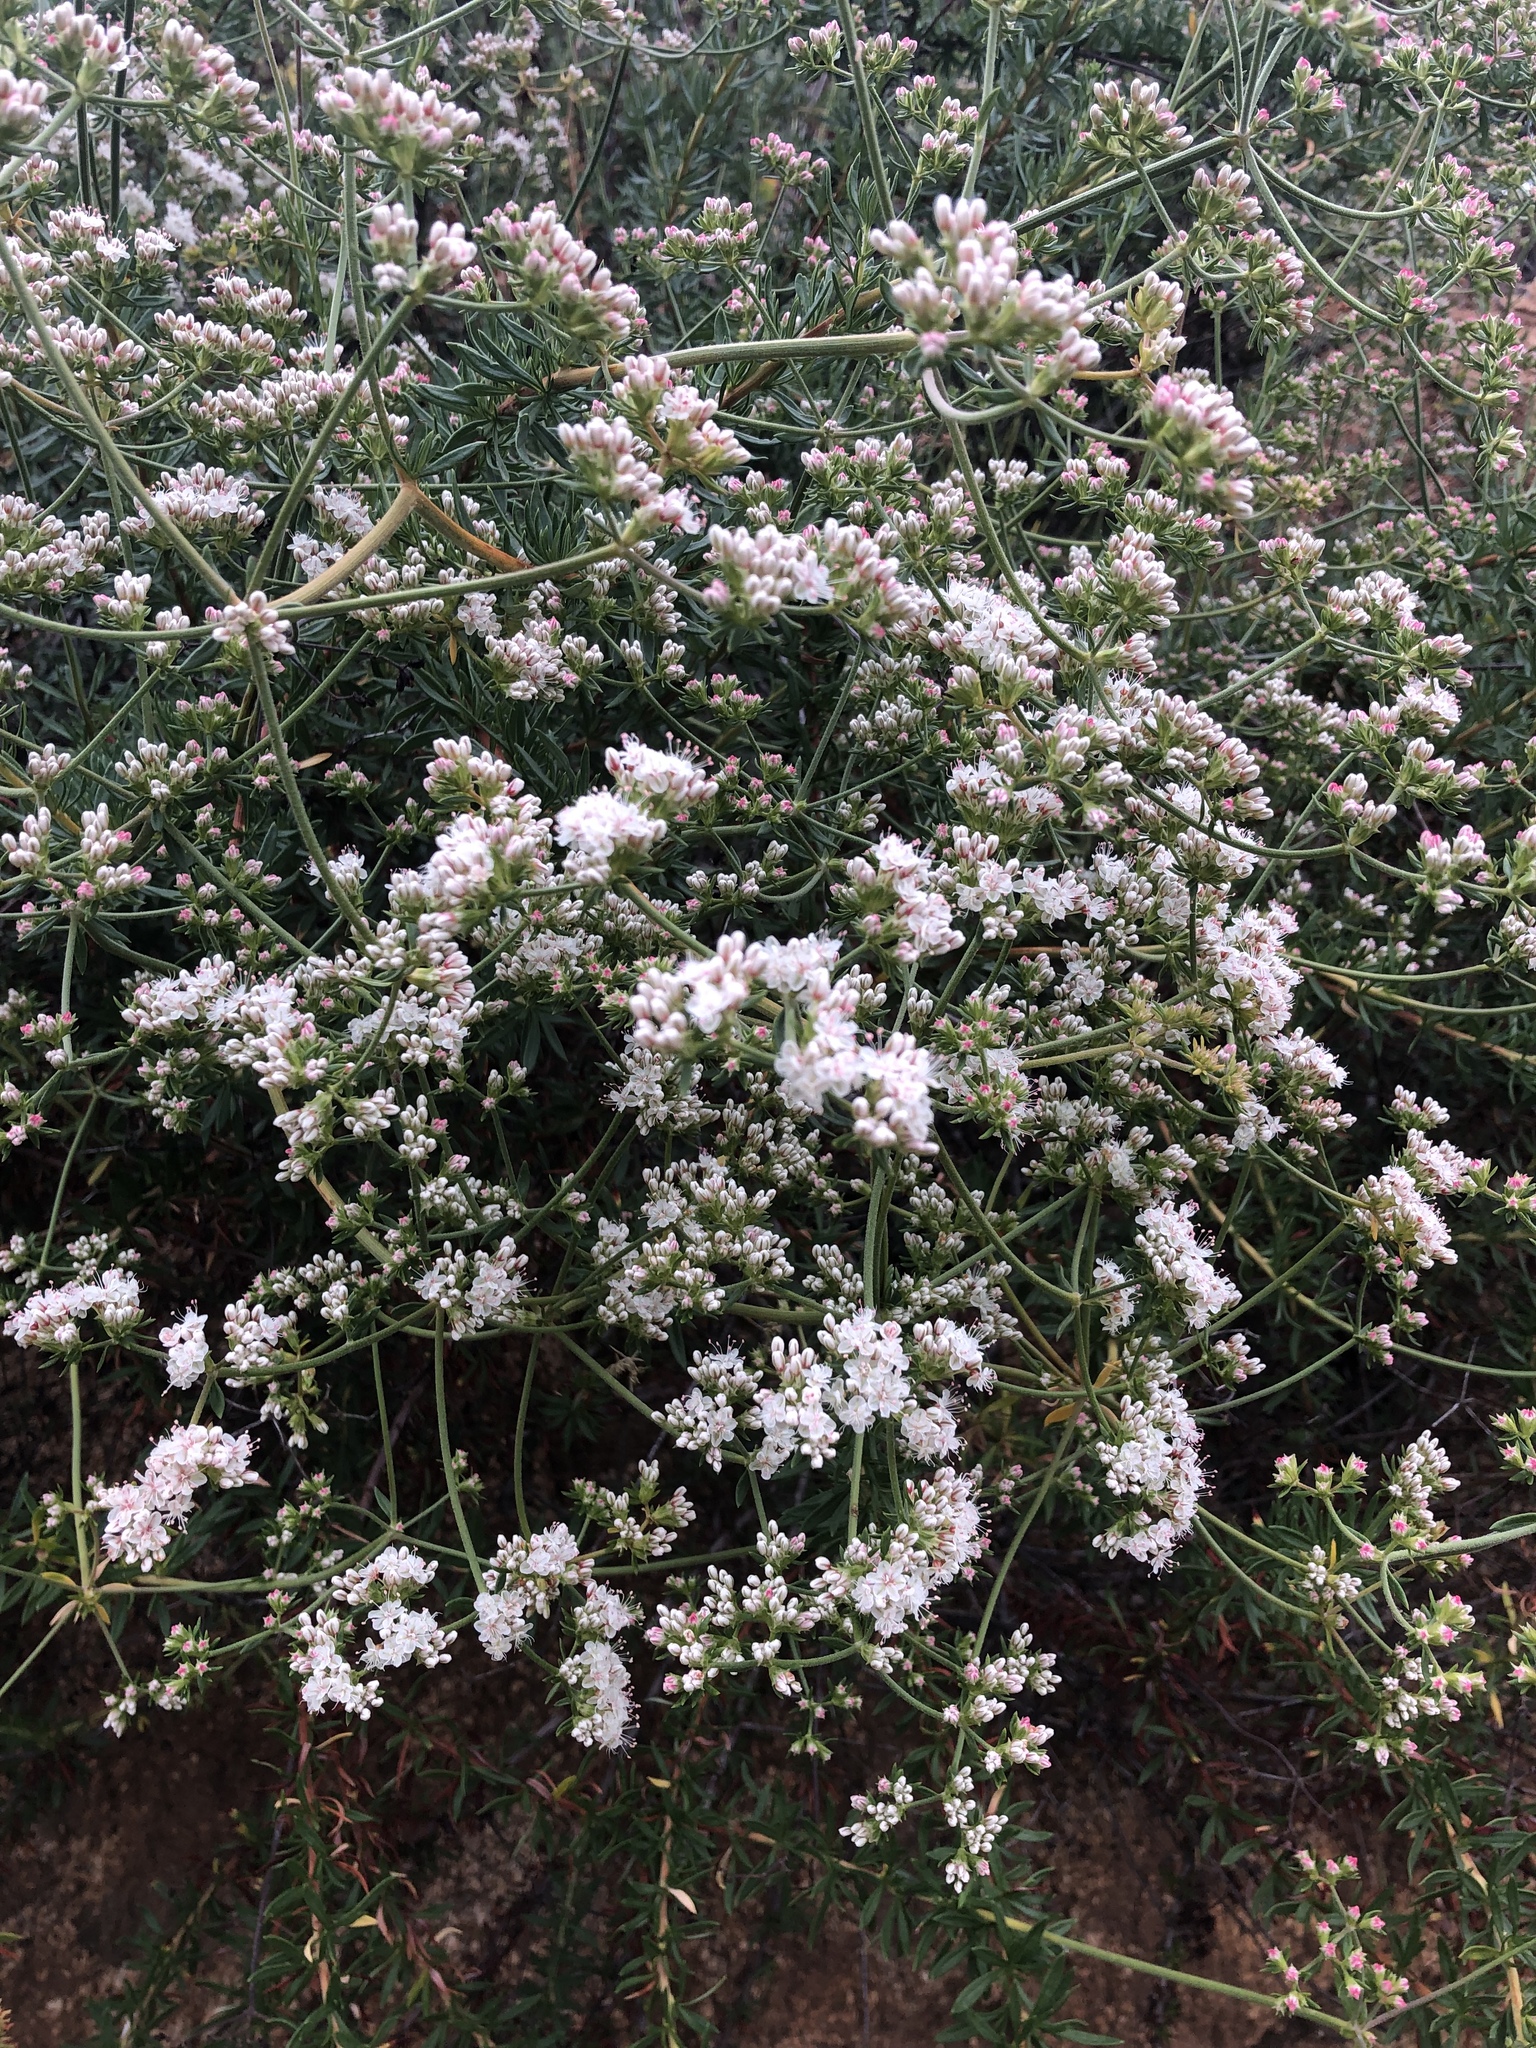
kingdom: Plantae
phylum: Tracheophyta
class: Magnoliopsida
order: Caryophyllales
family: Polygonaceae
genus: Eriogonum
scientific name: Eriogonum fasciculatum
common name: California wild buckwheat
